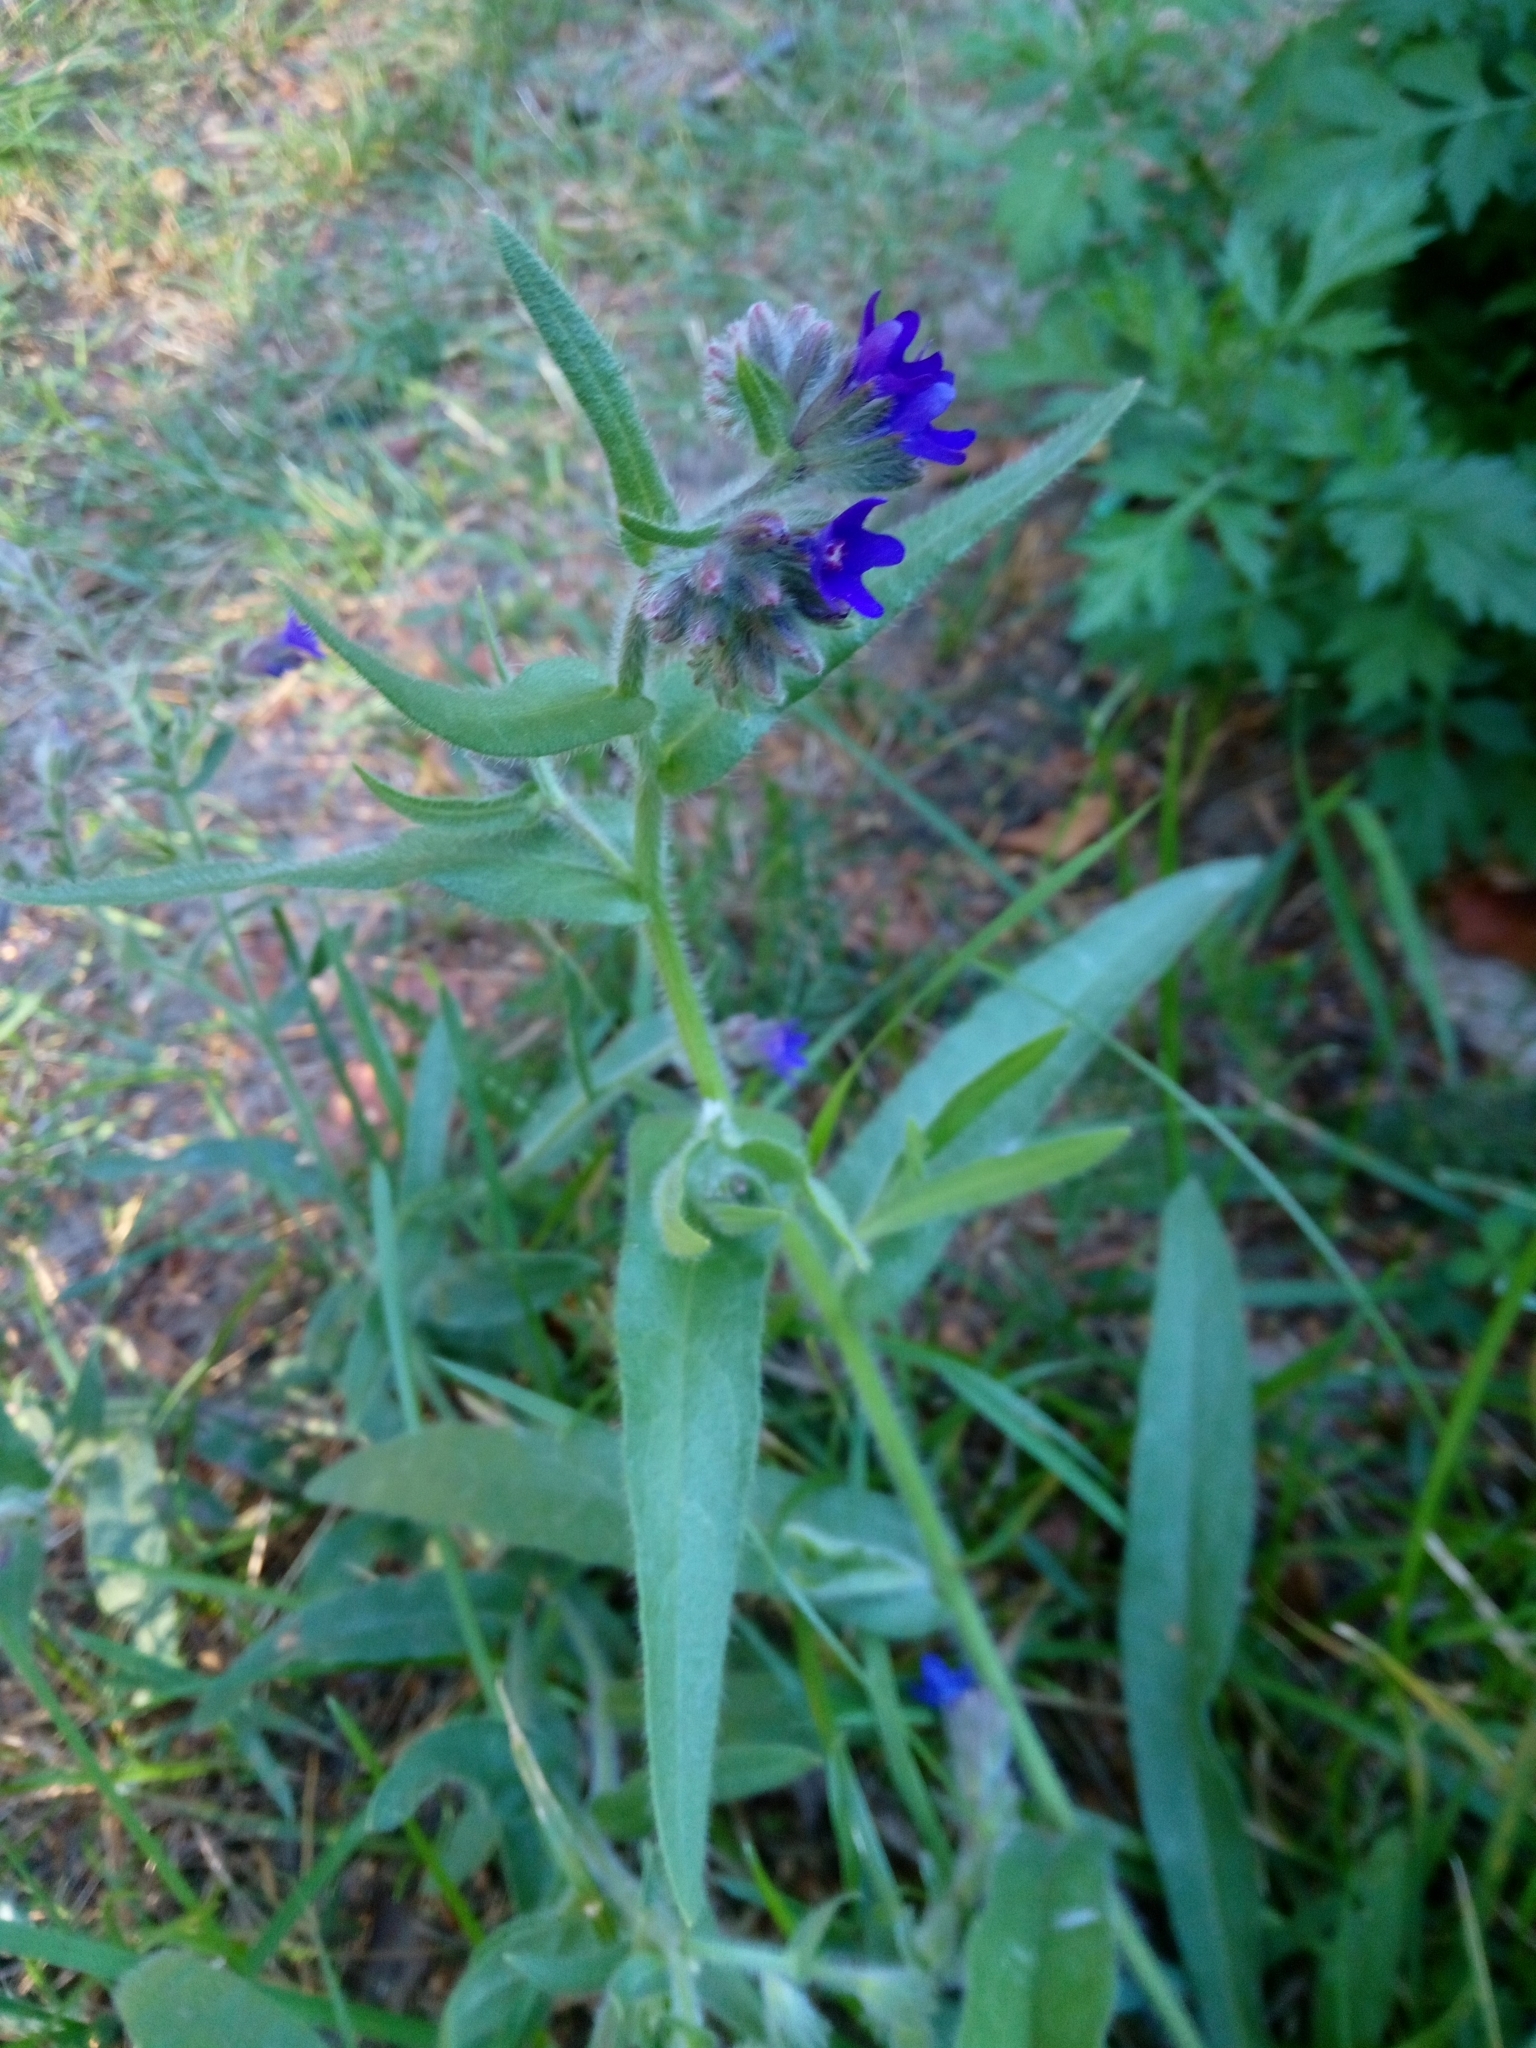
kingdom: Plantae
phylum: Tracheophyta
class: Magnoliopsida
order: Boraginales
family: Boraginaceae
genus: Anchusa
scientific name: Anchusa officinalis
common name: Alkanet
